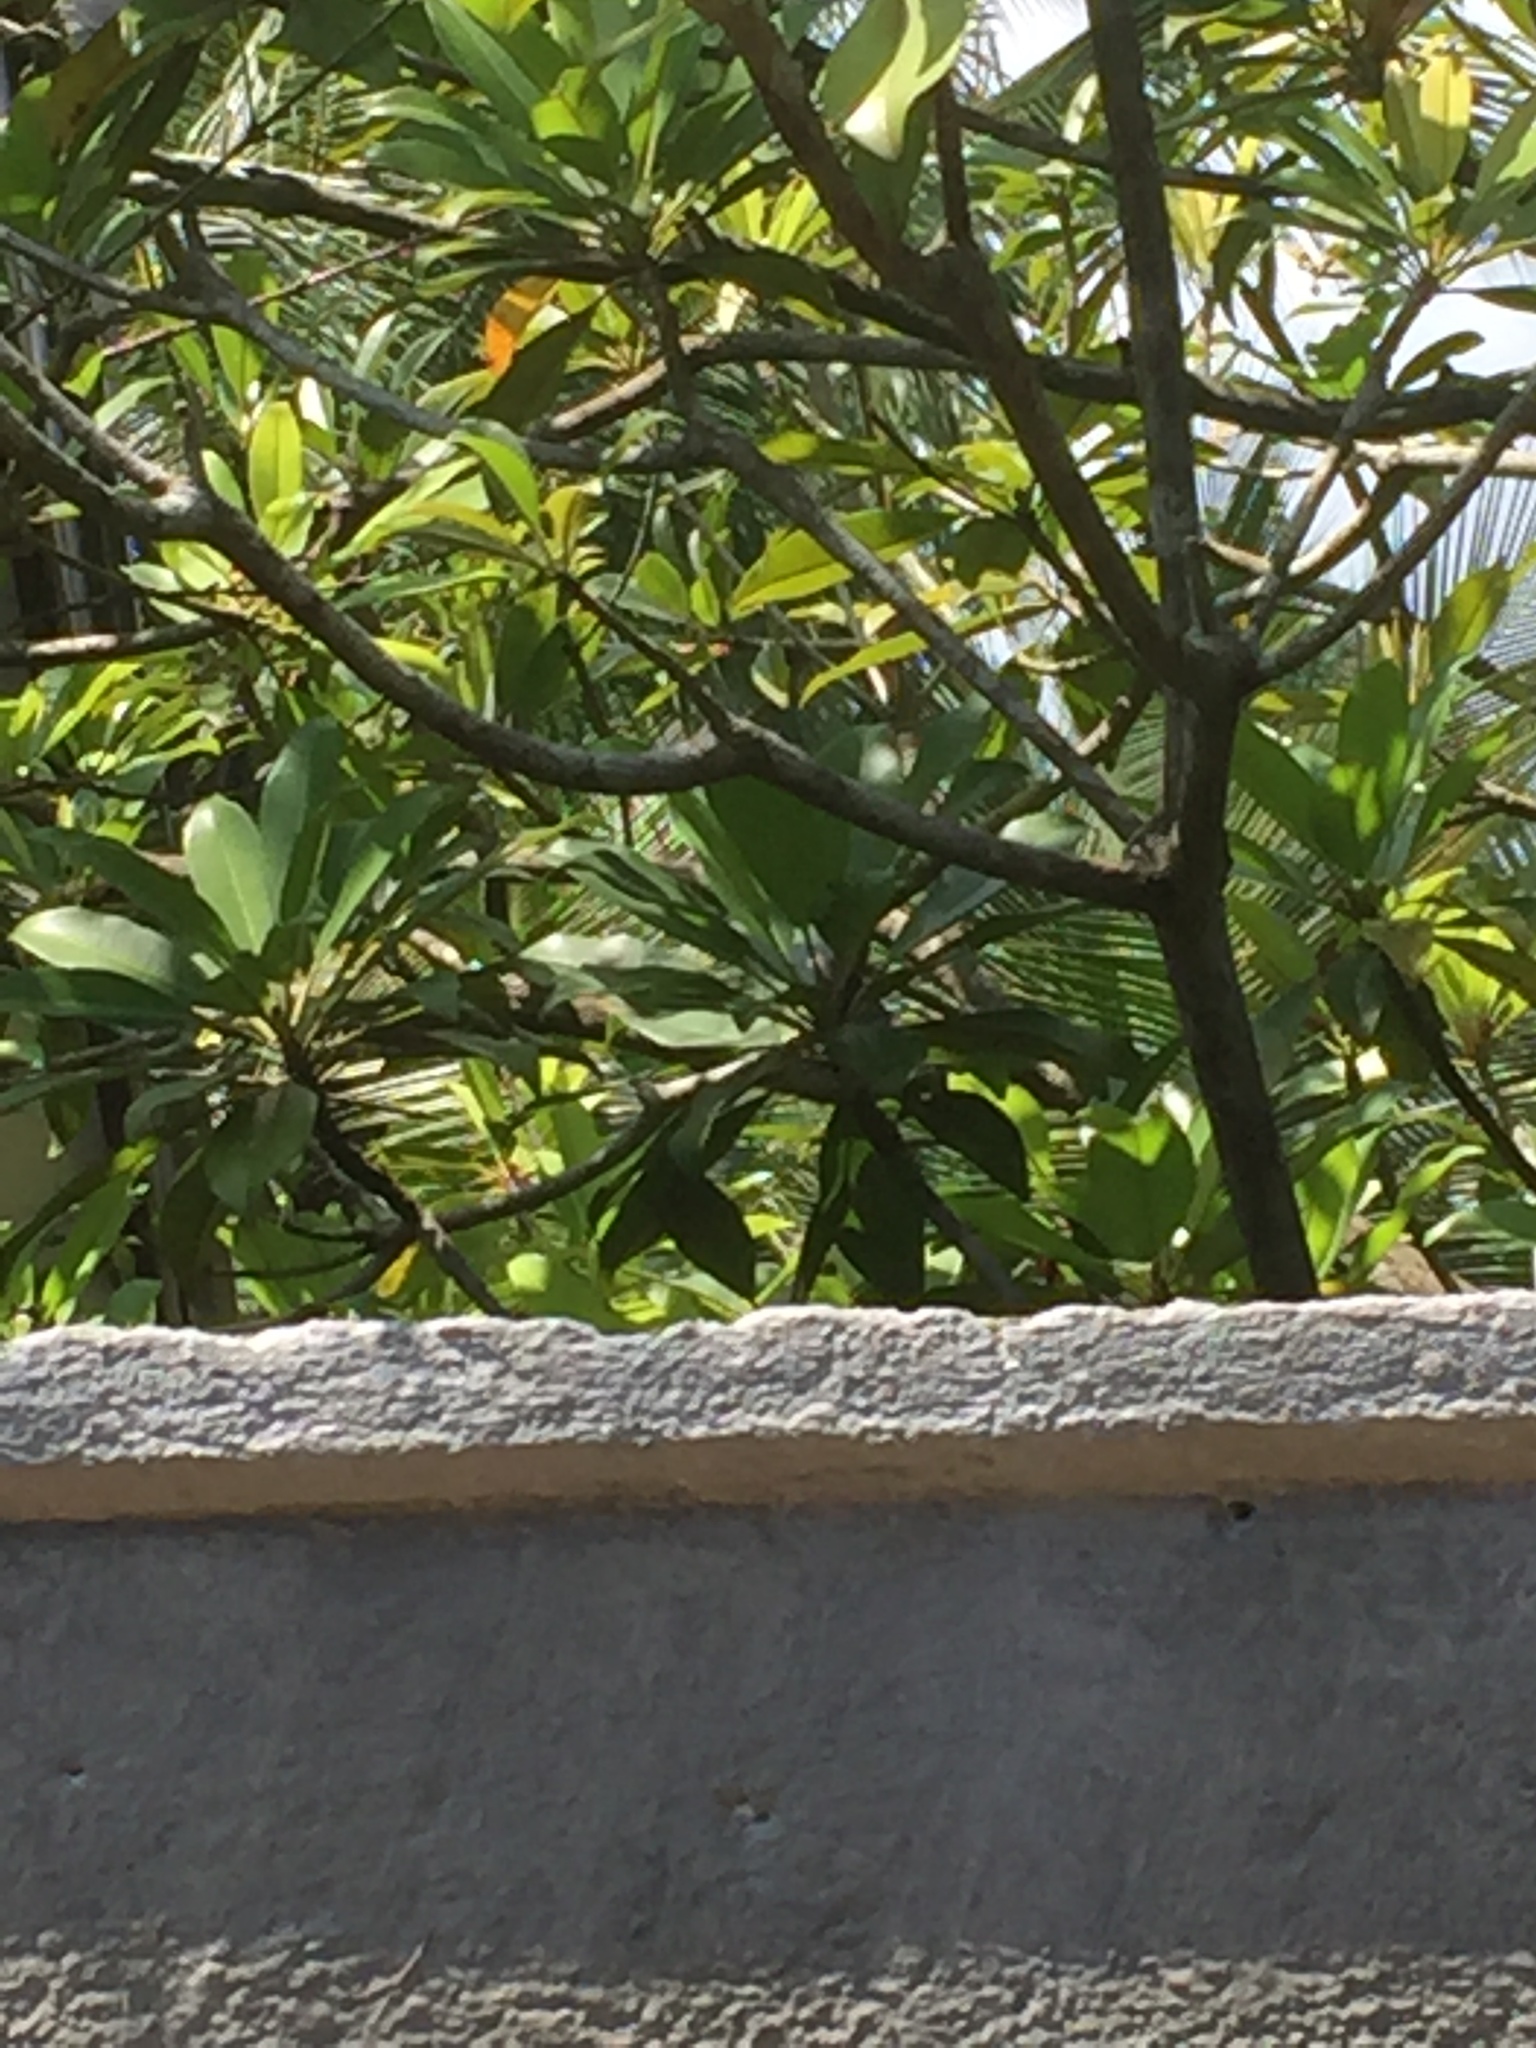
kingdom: Animalia
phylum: Chordata
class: Aves
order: Passeriformes
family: Nectariniidae
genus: Leptocoma
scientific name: Leptocoma zeylonica
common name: Purple-rumped sunbird
